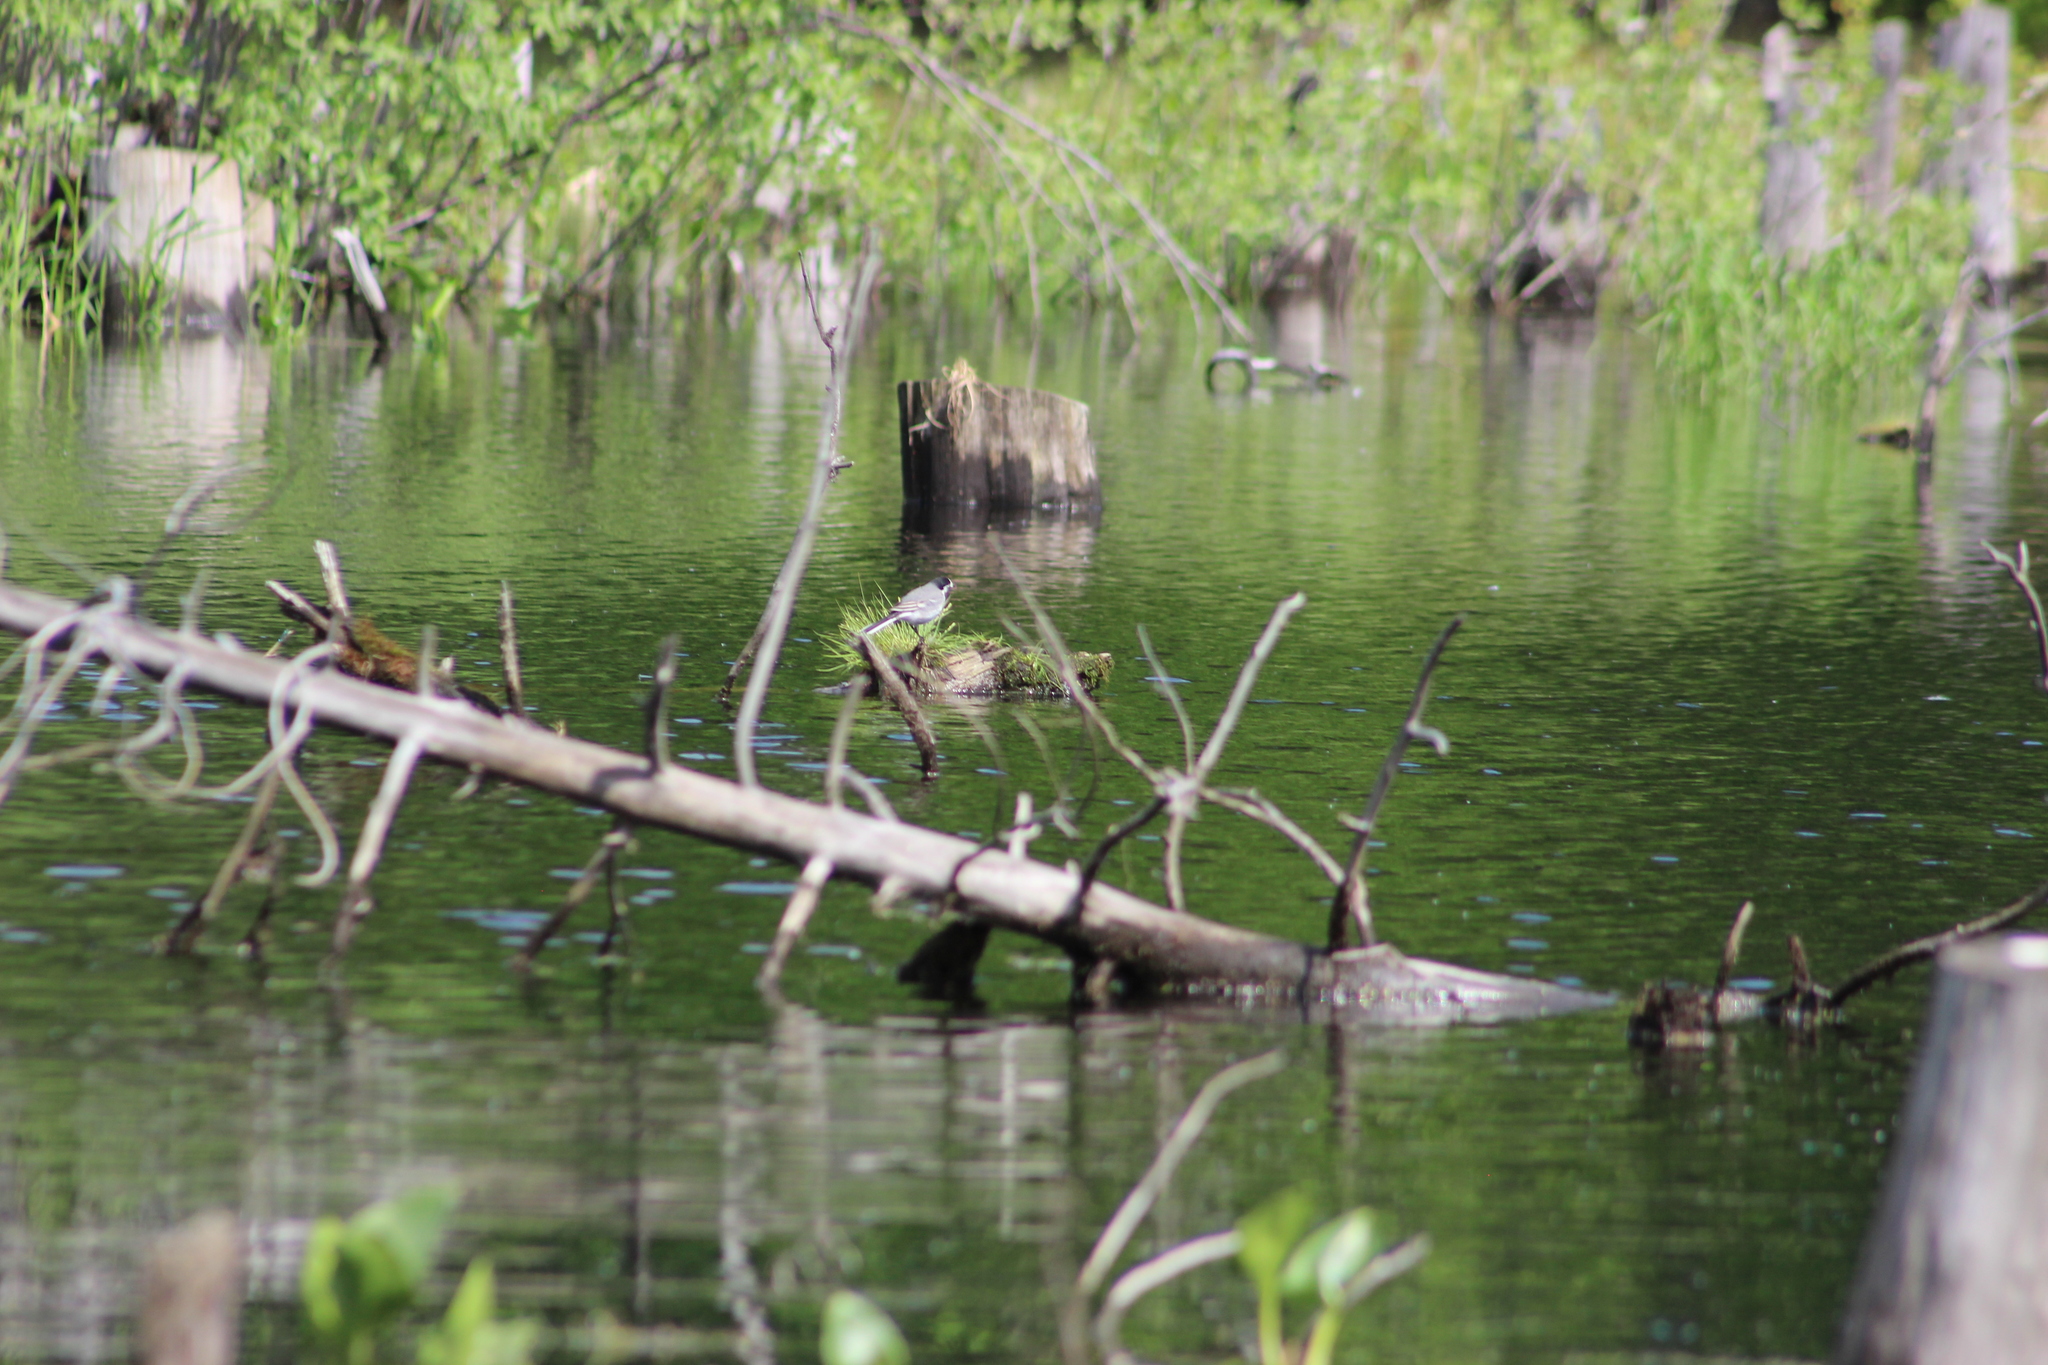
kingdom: Animalia
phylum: Chordata
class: Aves
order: Passeriformes
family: Motacillidae
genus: Motacilla
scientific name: Motacilla alba
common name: White wagtail
